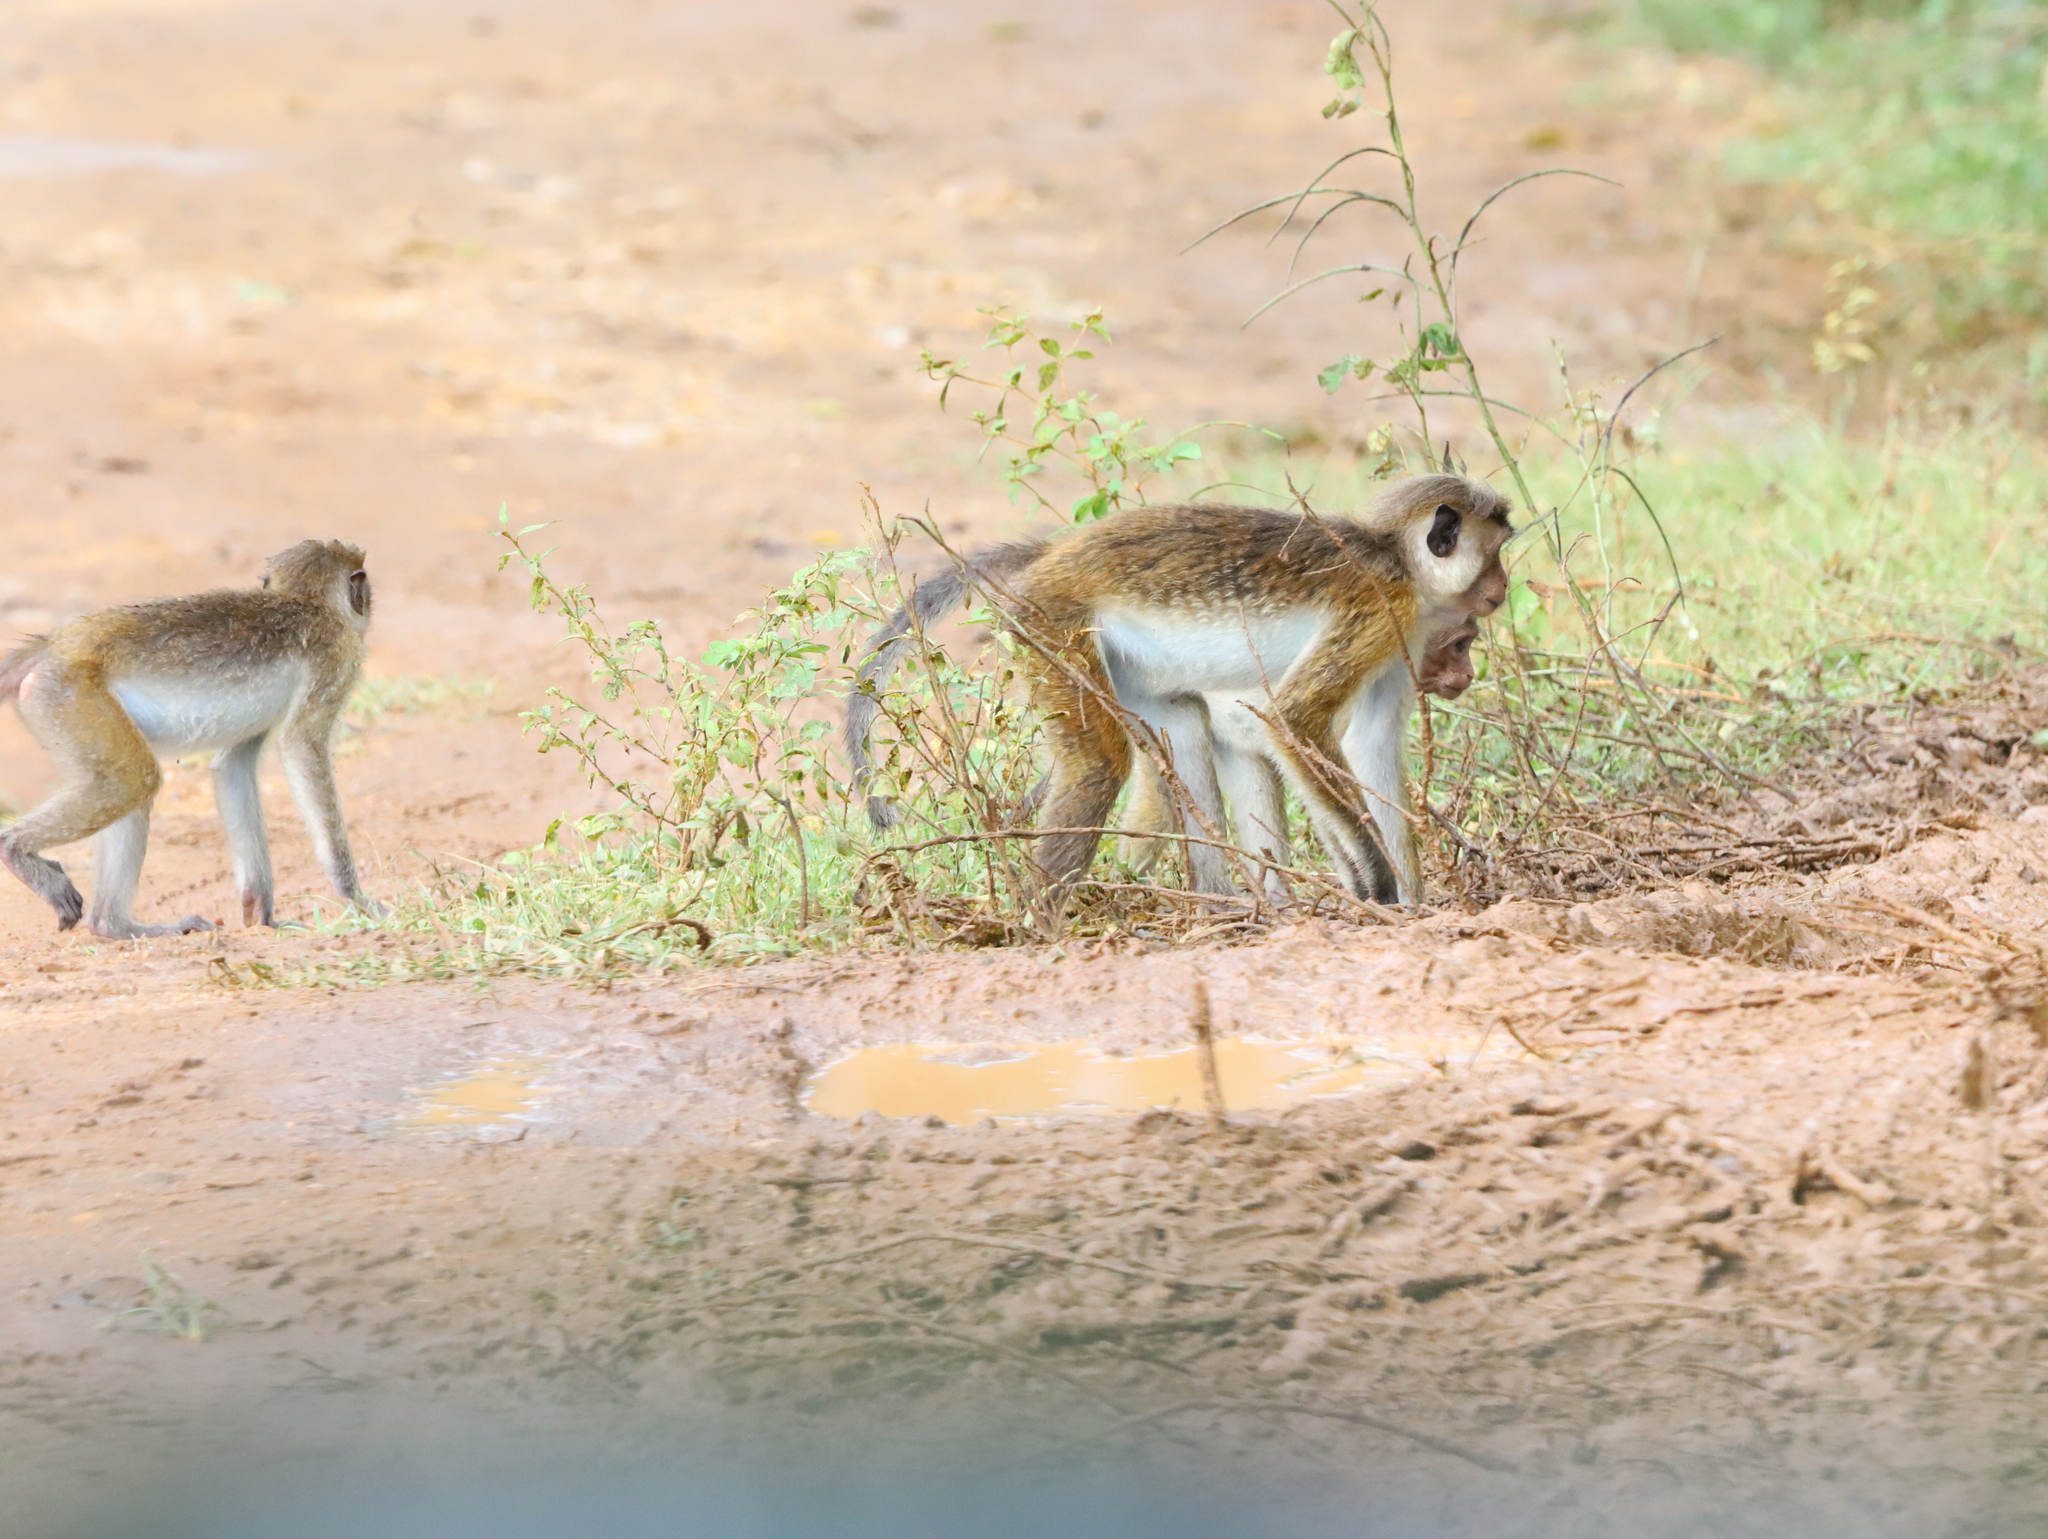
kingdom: Animalia
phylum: Chordata
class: Mammalia
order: Primates
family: Cercopithecidae
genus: Macaca
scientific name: Macaca sinica
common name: Toque macaque
